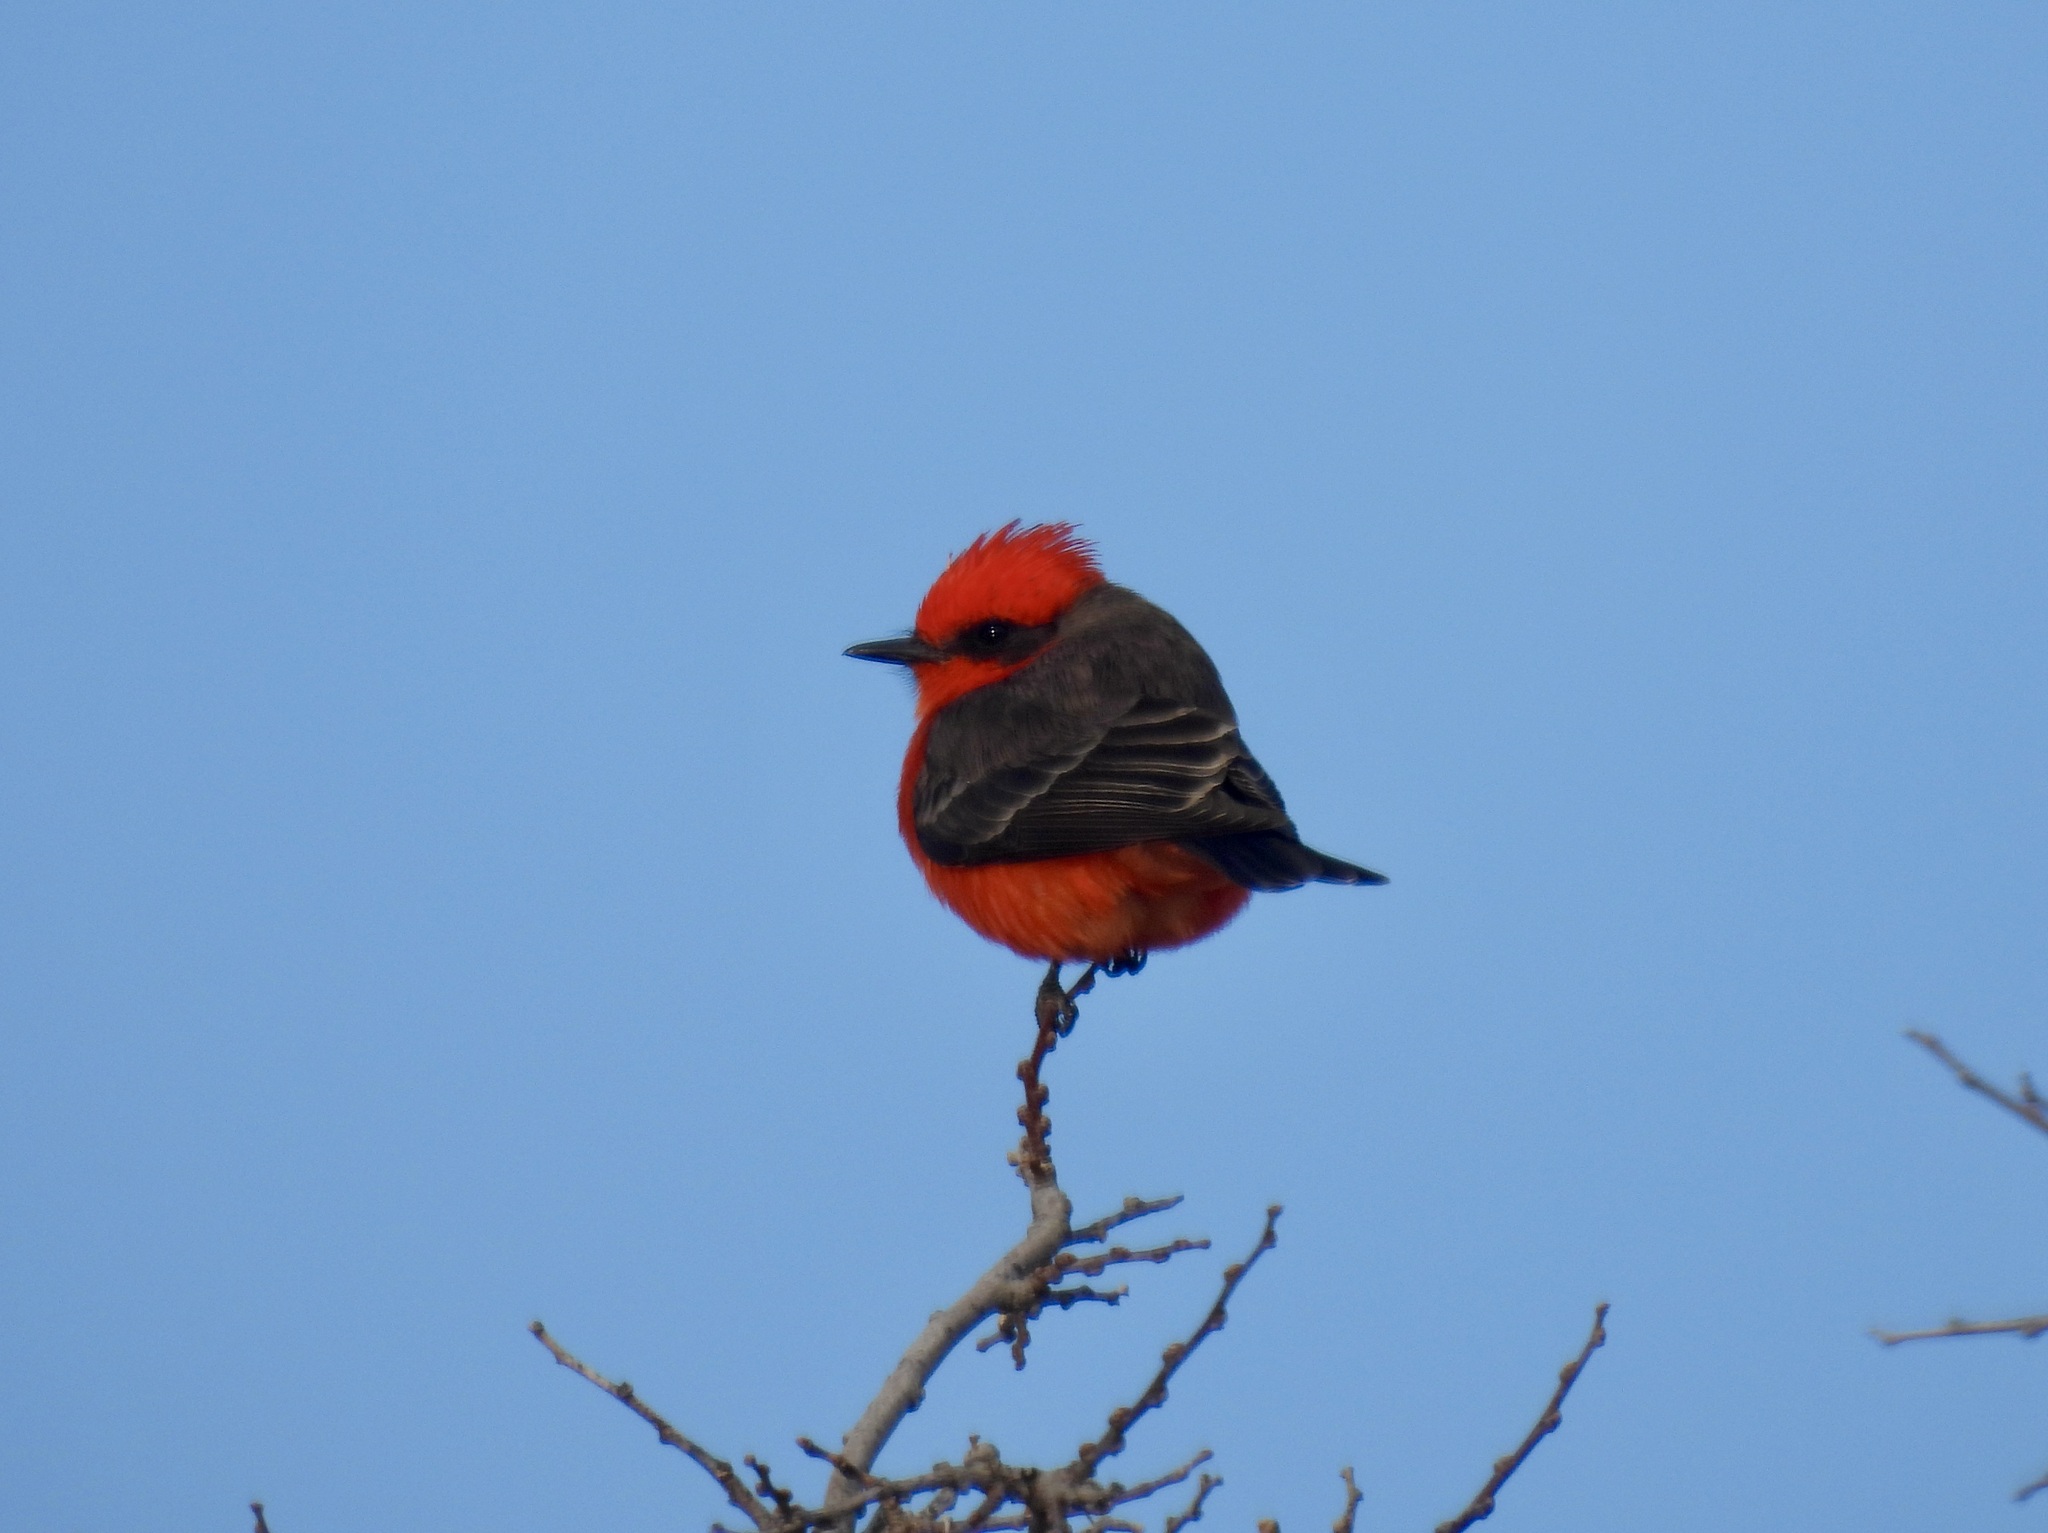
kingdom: Animalia
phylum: Chordata
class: Aves
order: Passeriformes
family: Tyrannidae
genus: Pyrocephalus
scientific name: Pyrocephalus rubinus
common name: Vermilion flycatcher
